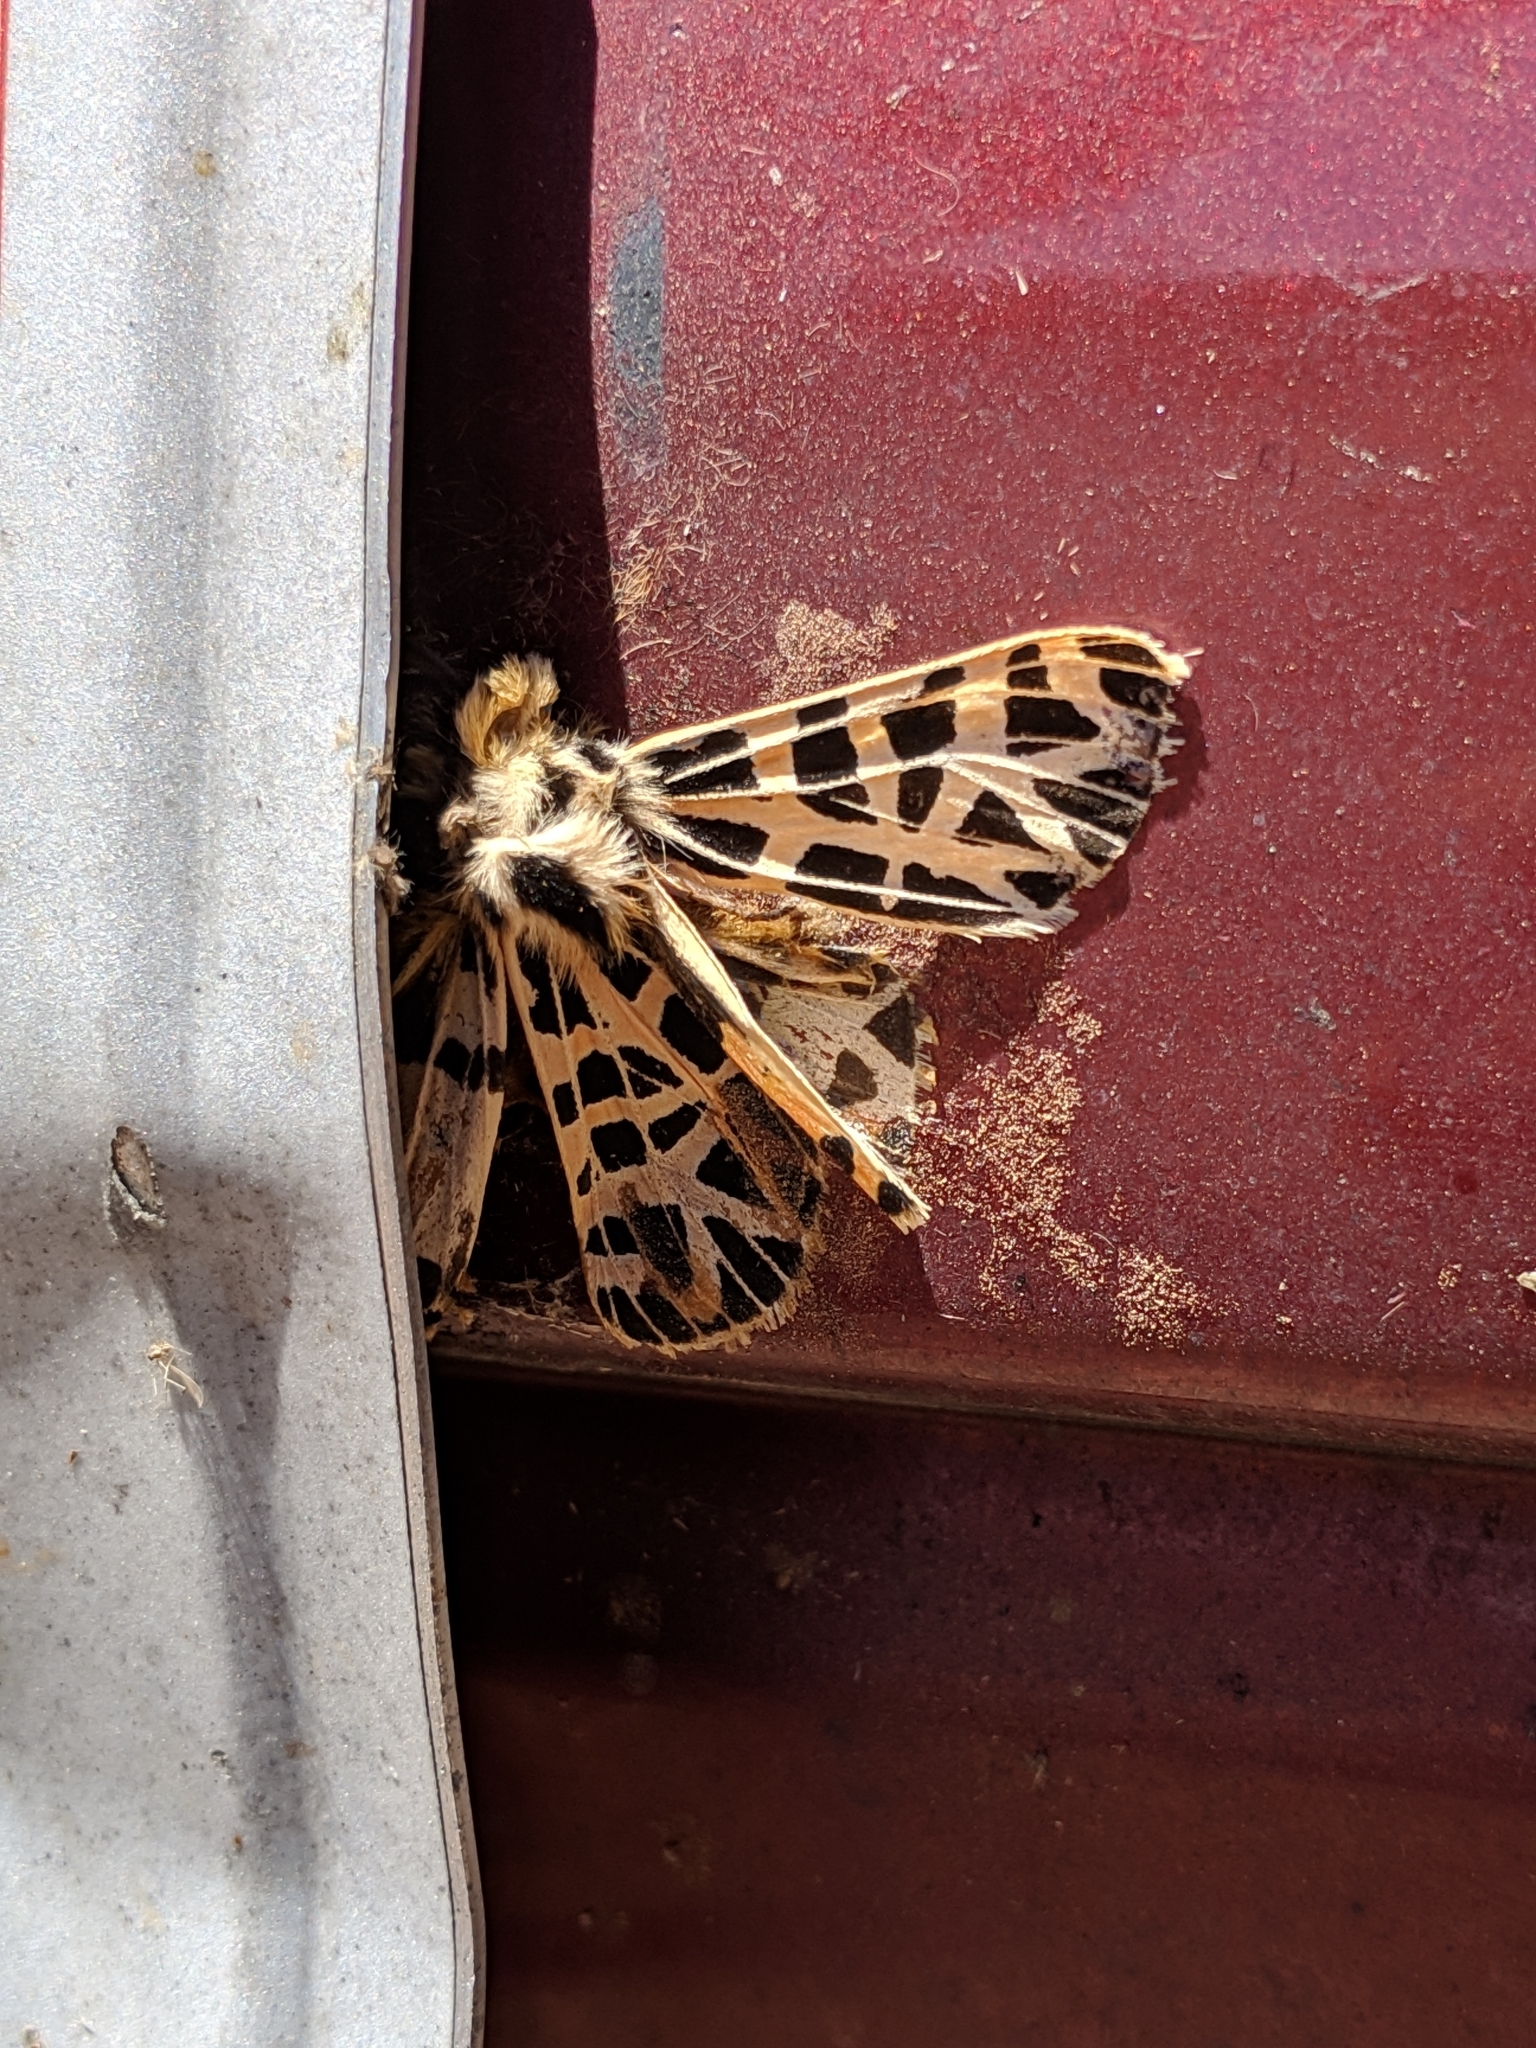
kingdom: Animalia
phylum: Arthropoda
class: Insecta
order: Lepidoptera
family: Erebidae
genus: Apantesis
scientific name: Apantesis
